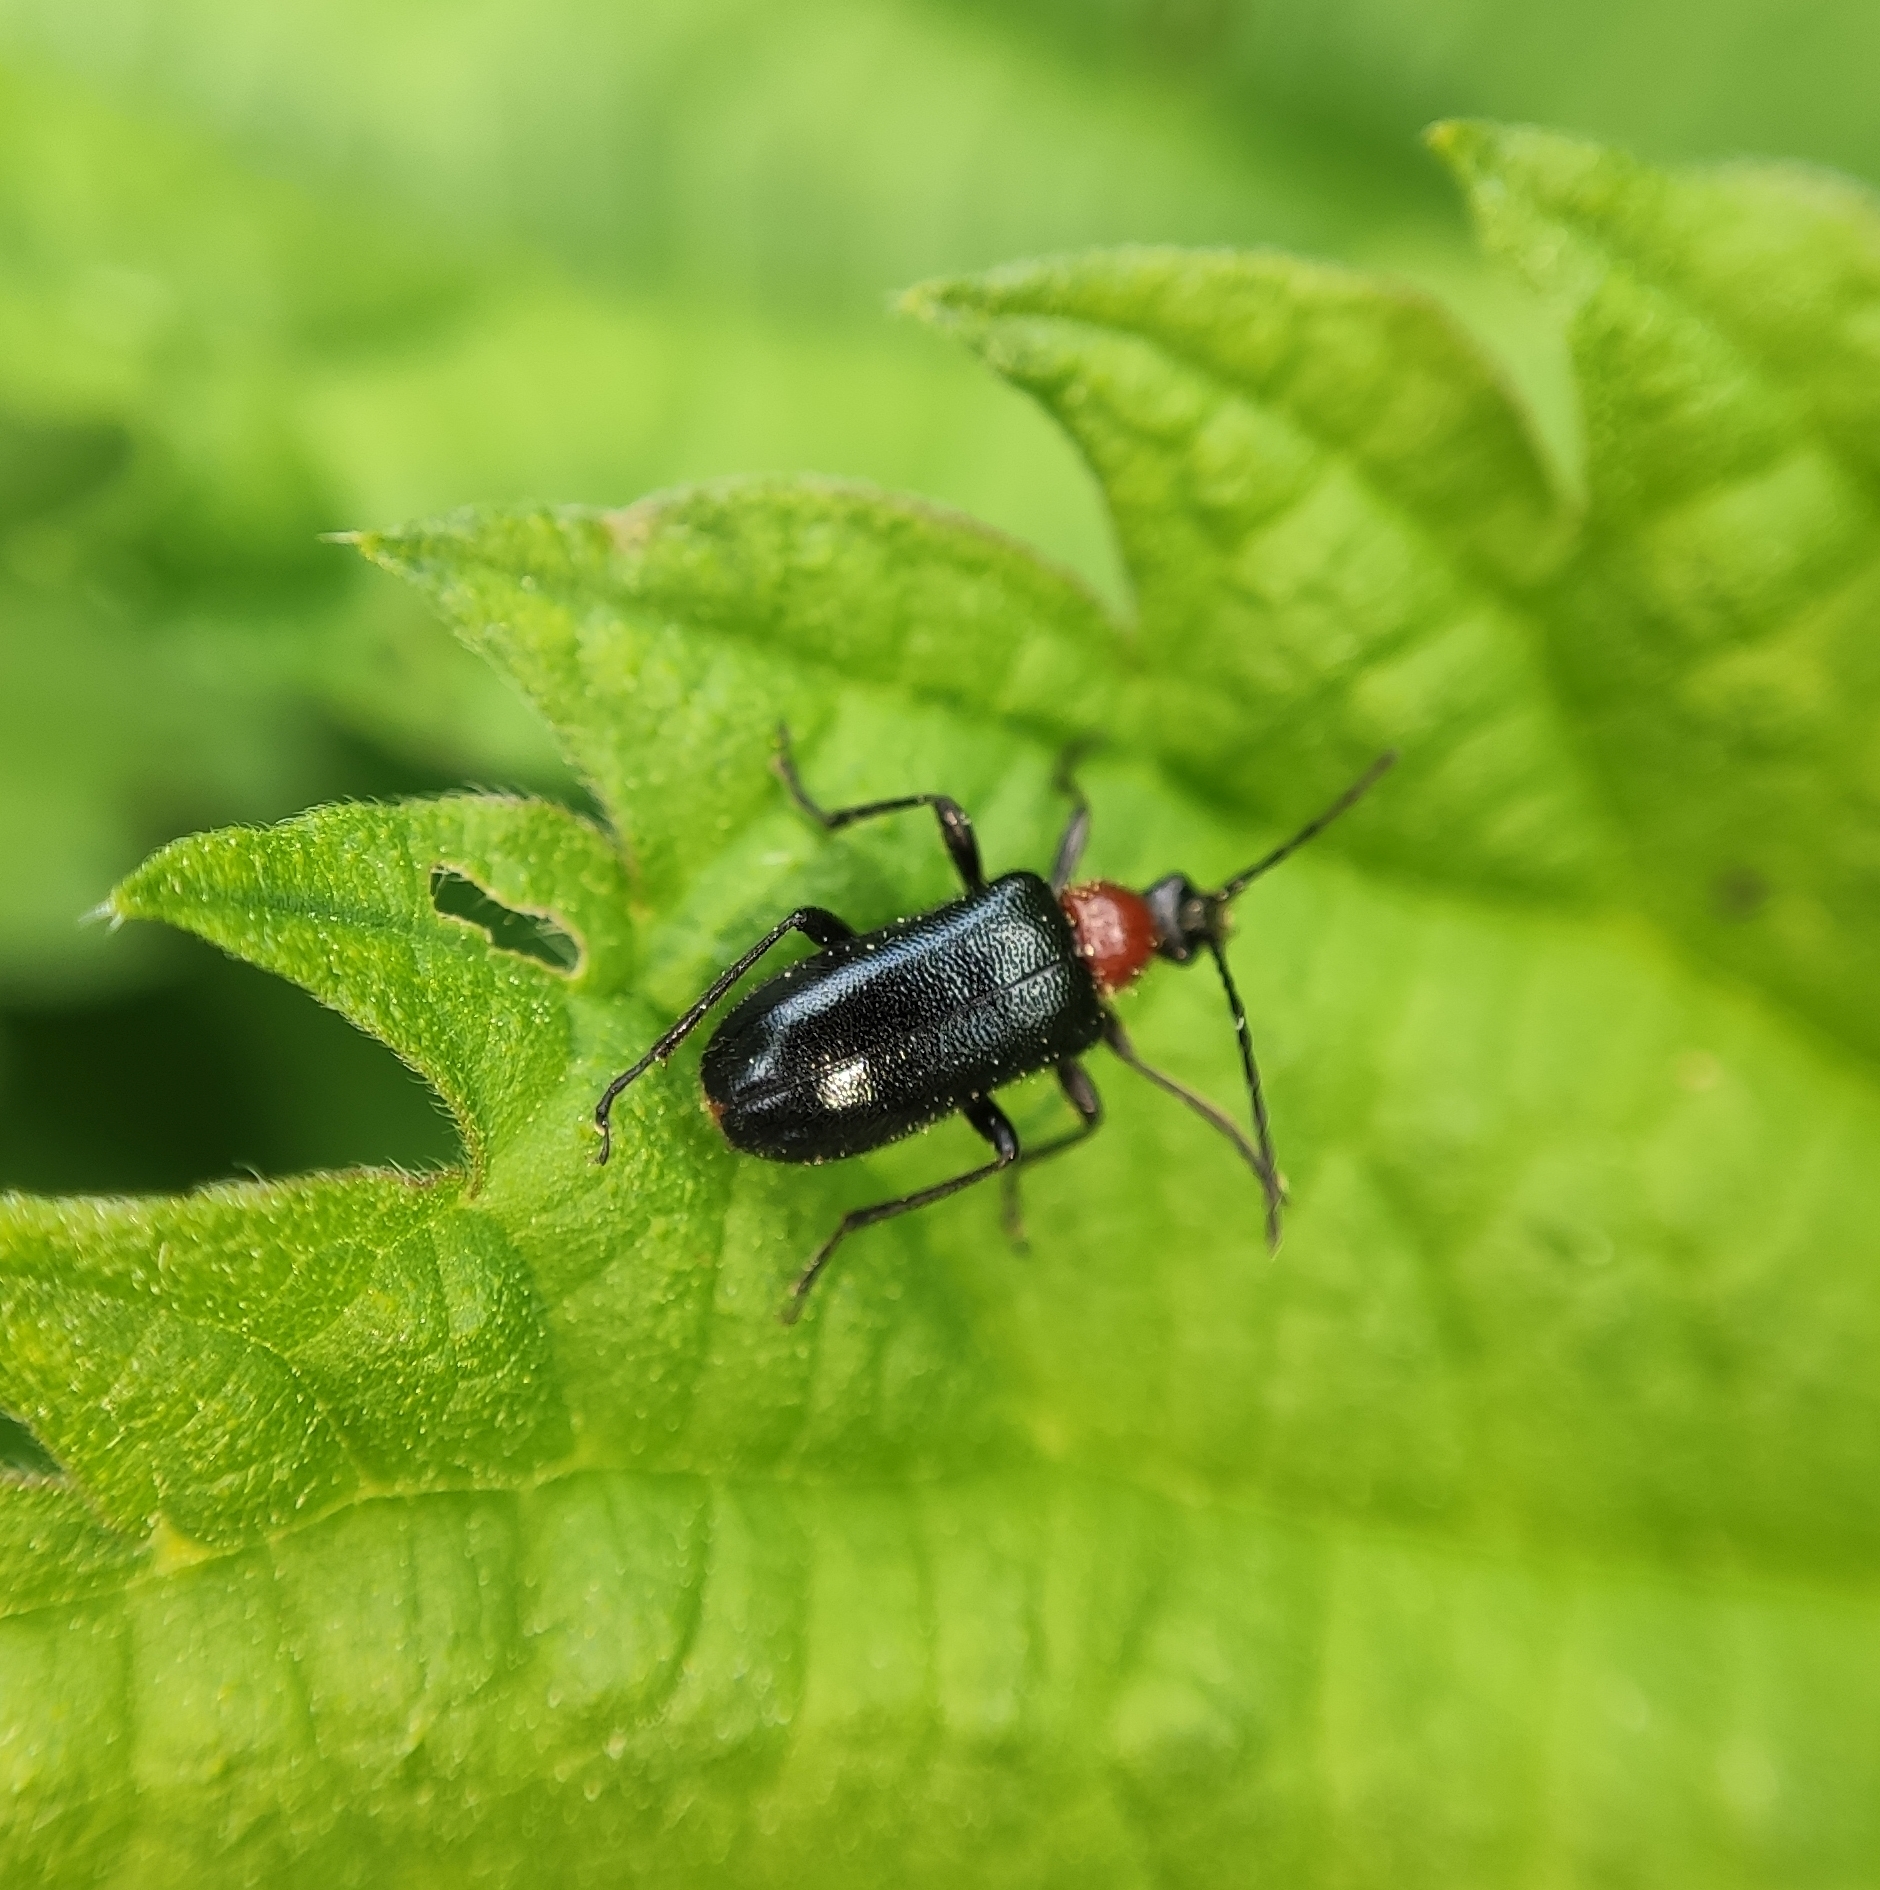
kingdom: Animalia
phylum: Arthropoda
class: Insecta
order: Coleoptera
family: Cerambycidae
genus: Dinoptera
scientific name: Dinoptera collaris
